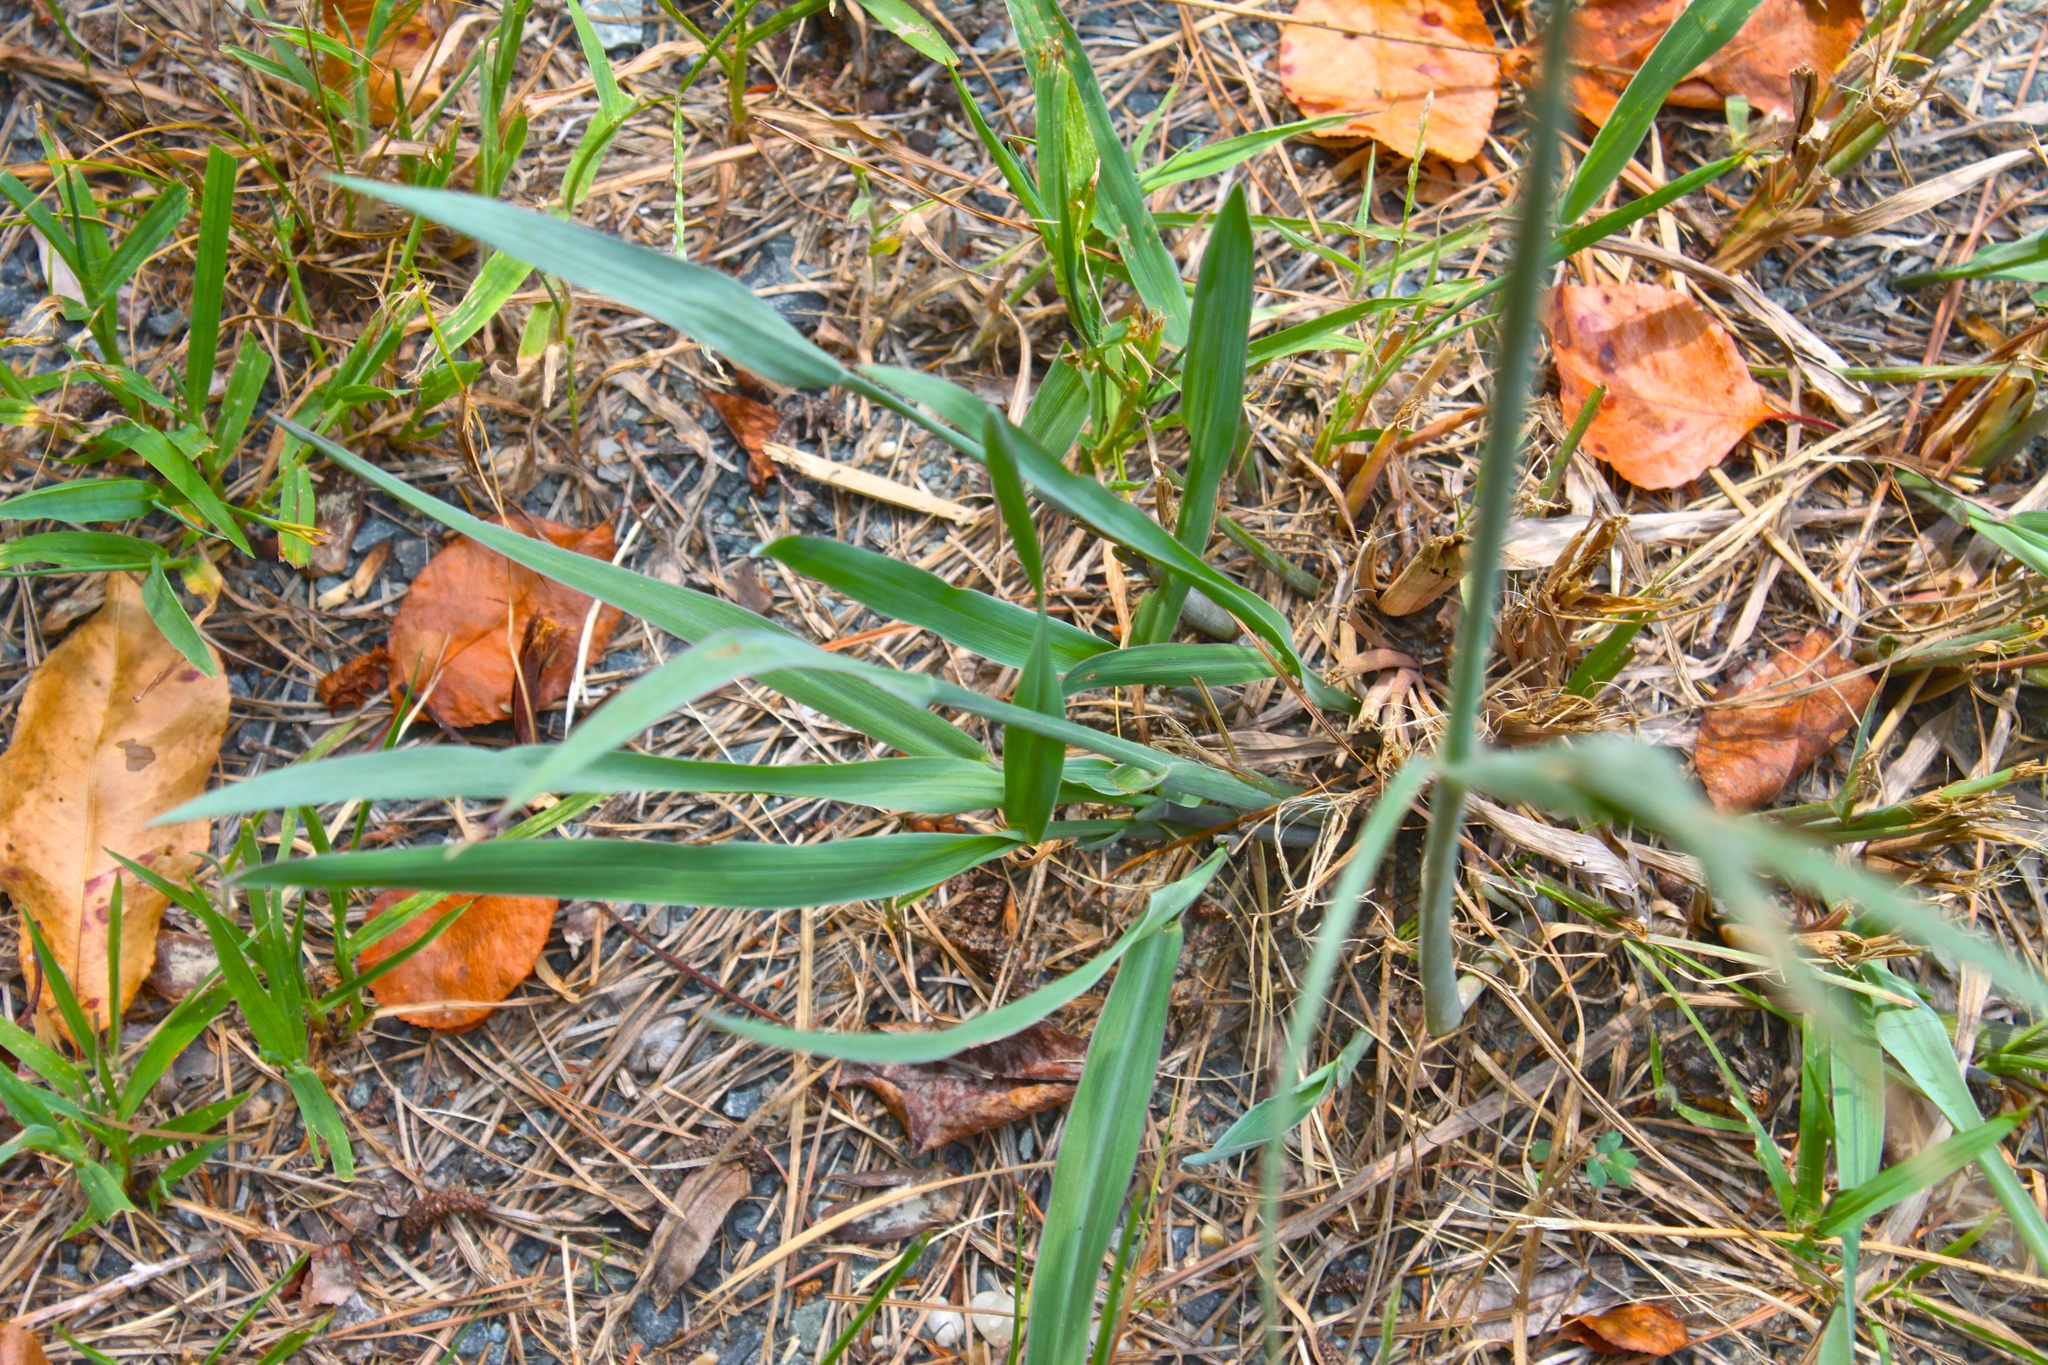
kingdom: Plantae
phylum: Tracheophyta
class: Liliopsida
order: Poales
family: Poaceae
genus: Paspalum
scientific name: Paspalum floridanum
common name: Florida paspalum
